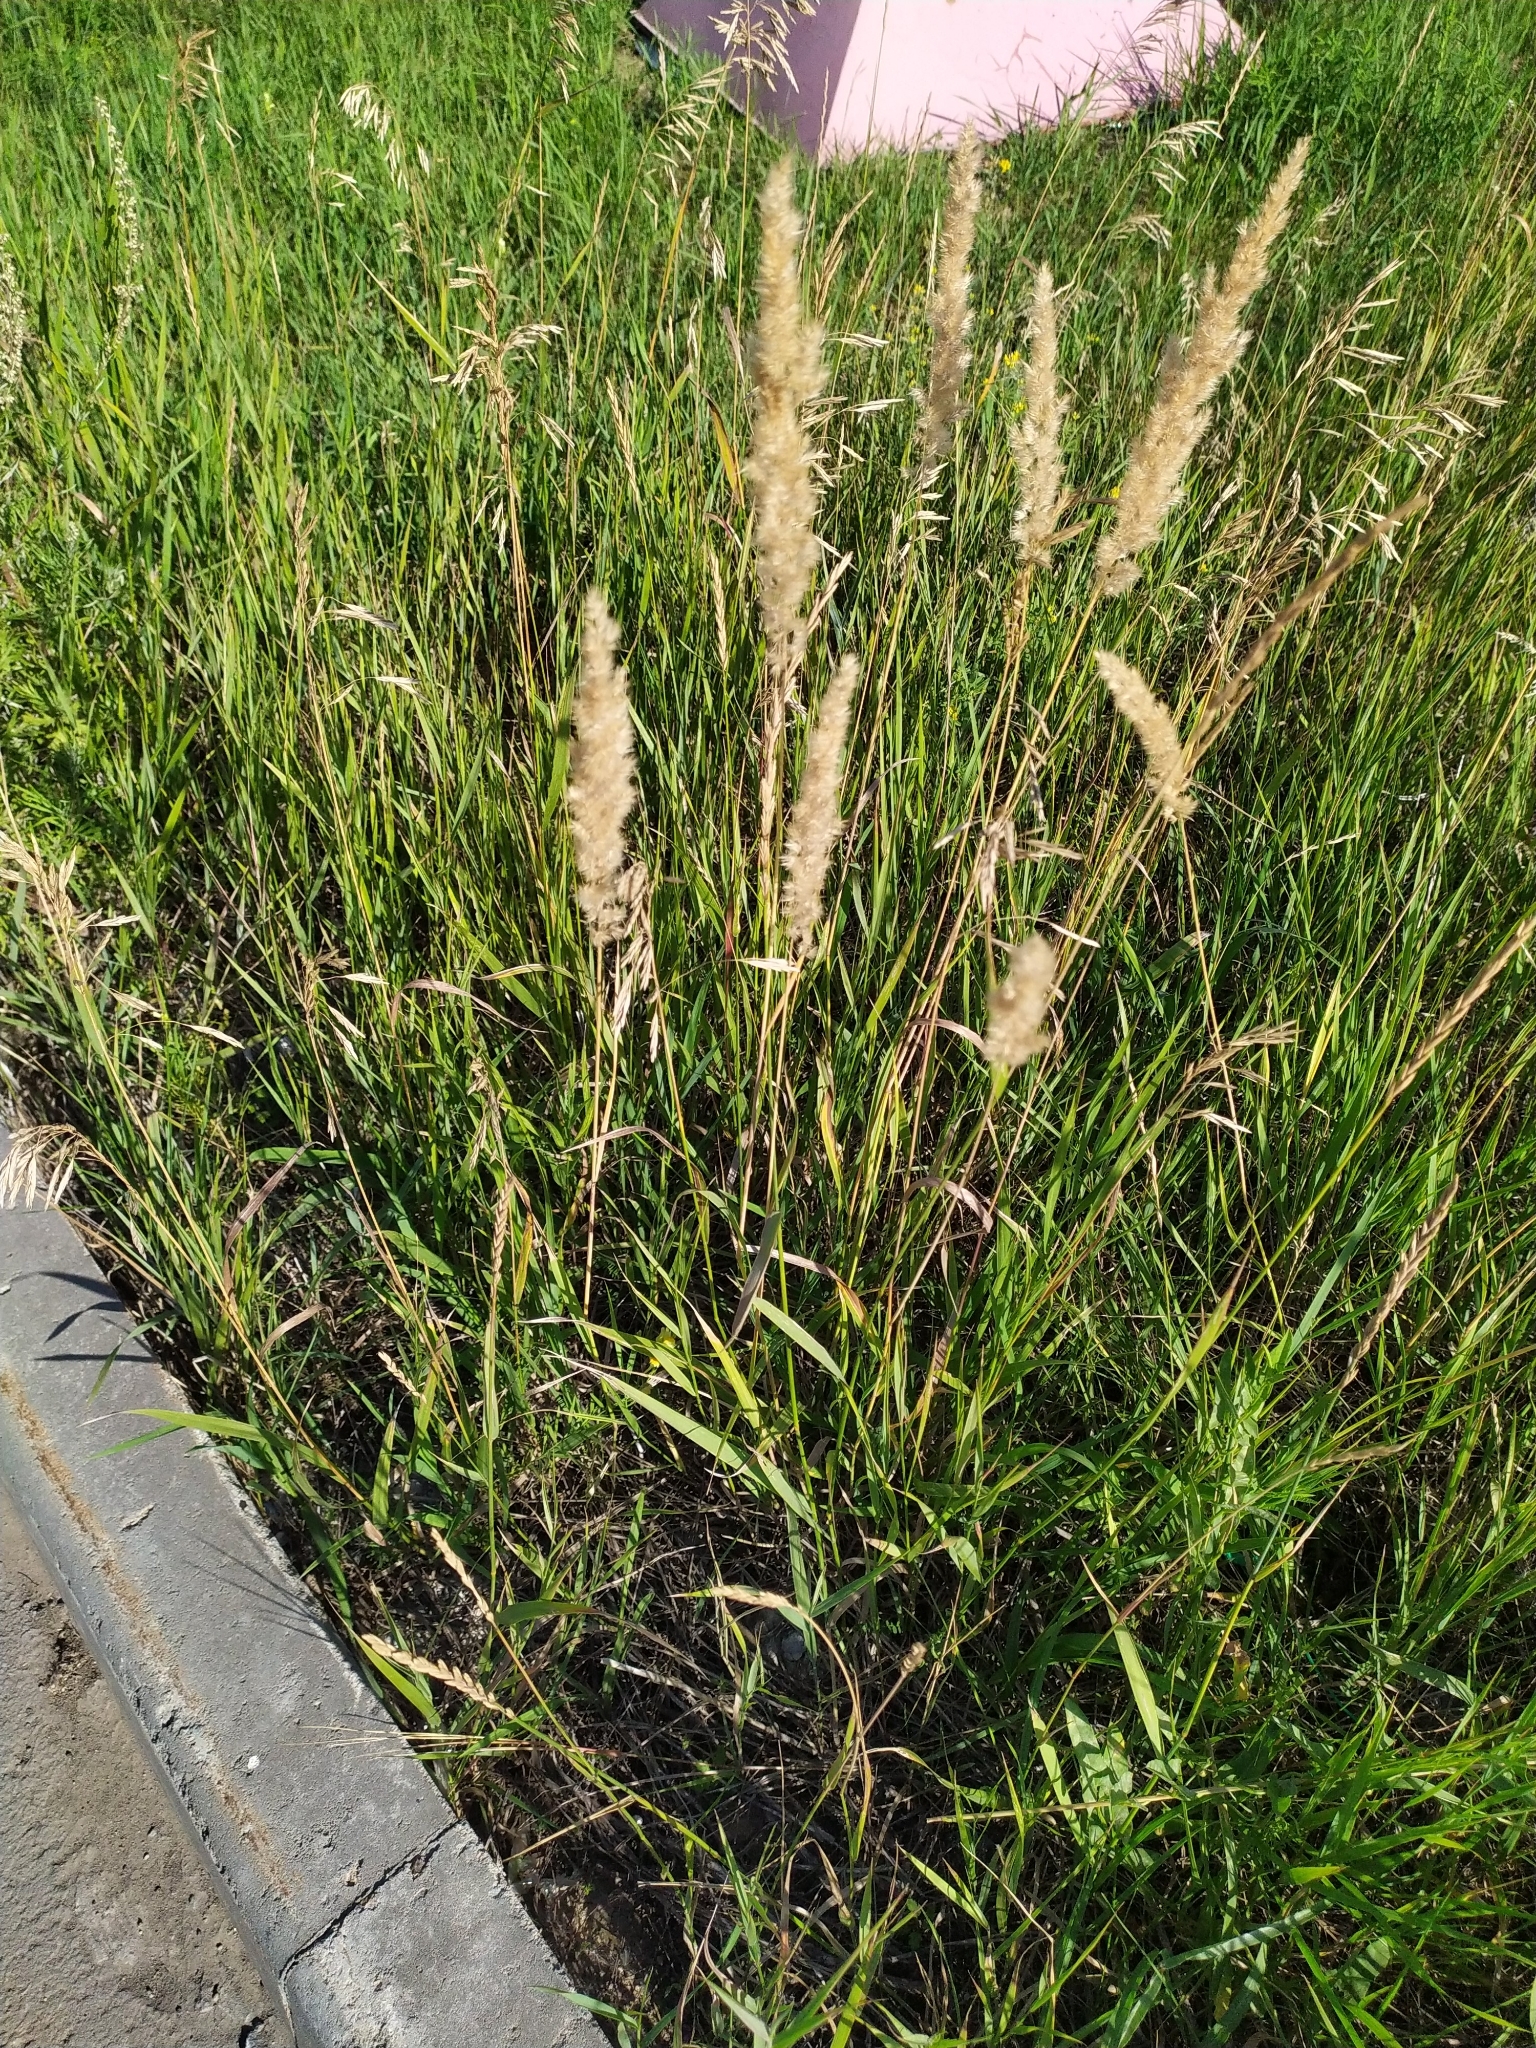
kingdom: Plantae
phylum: Tracheophyta
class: Liliopsida
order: Poales
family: Poaceae
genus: Calamagrostis
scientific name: Calamagrostis epigejos
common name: Wood small-reed
